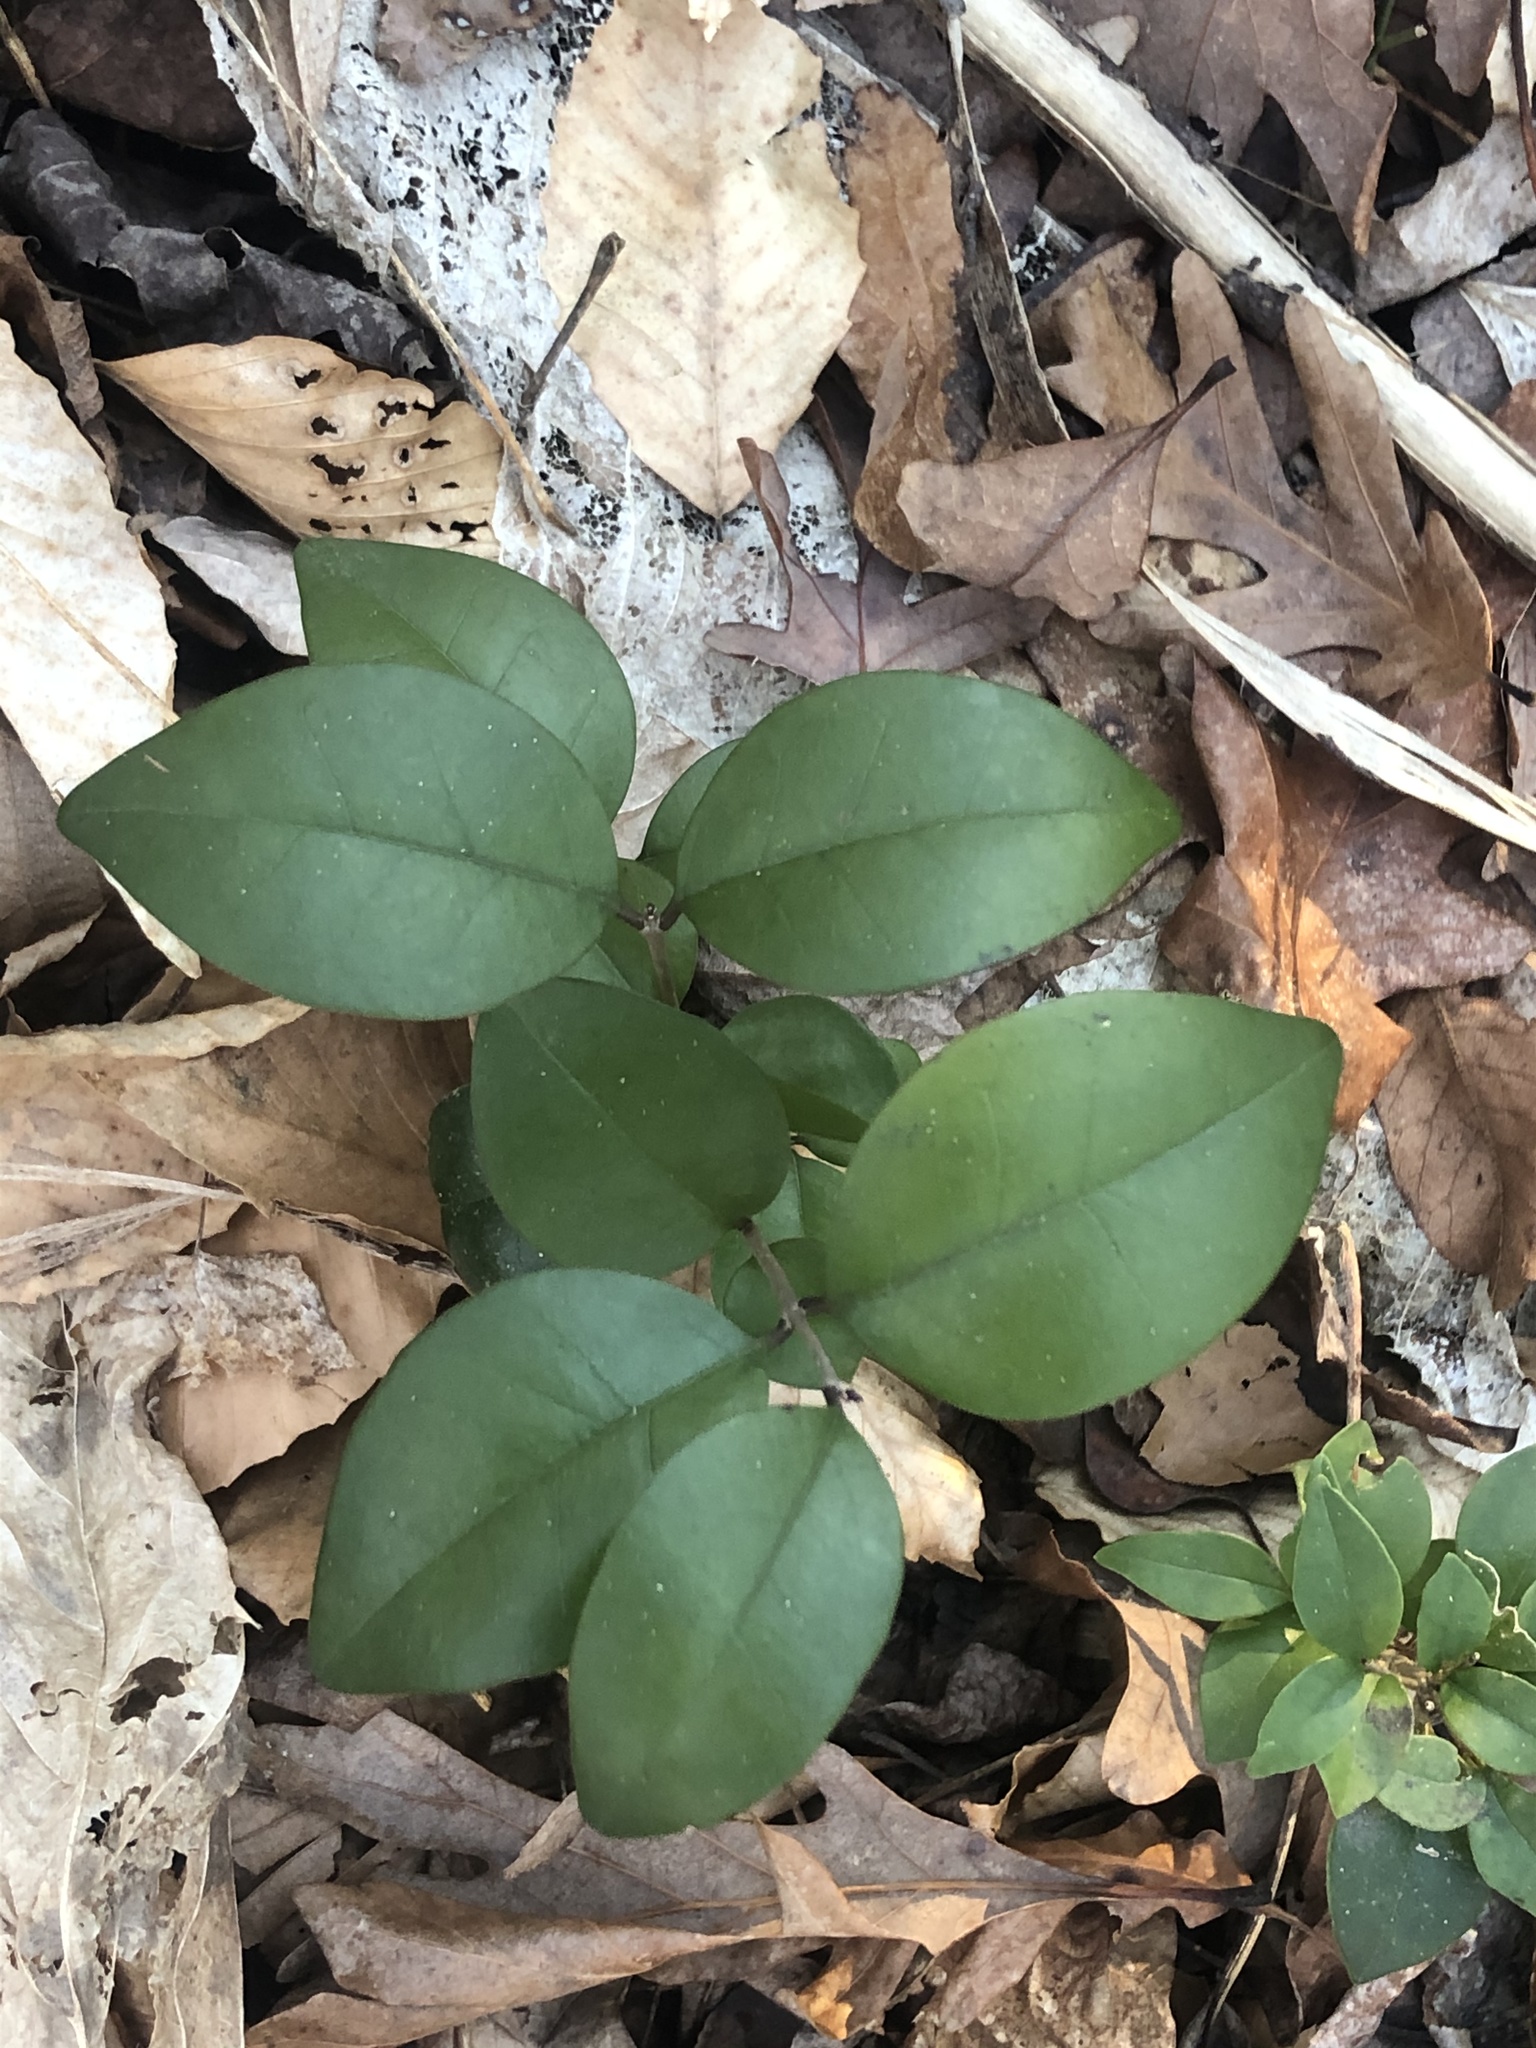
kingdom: Plantae
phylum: Tracheophyta
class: Magnoliopsida
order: Lamiales
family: Oleaceae
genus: Ligustrum
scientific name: Ligustrum lucidum
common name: Glossy privet
